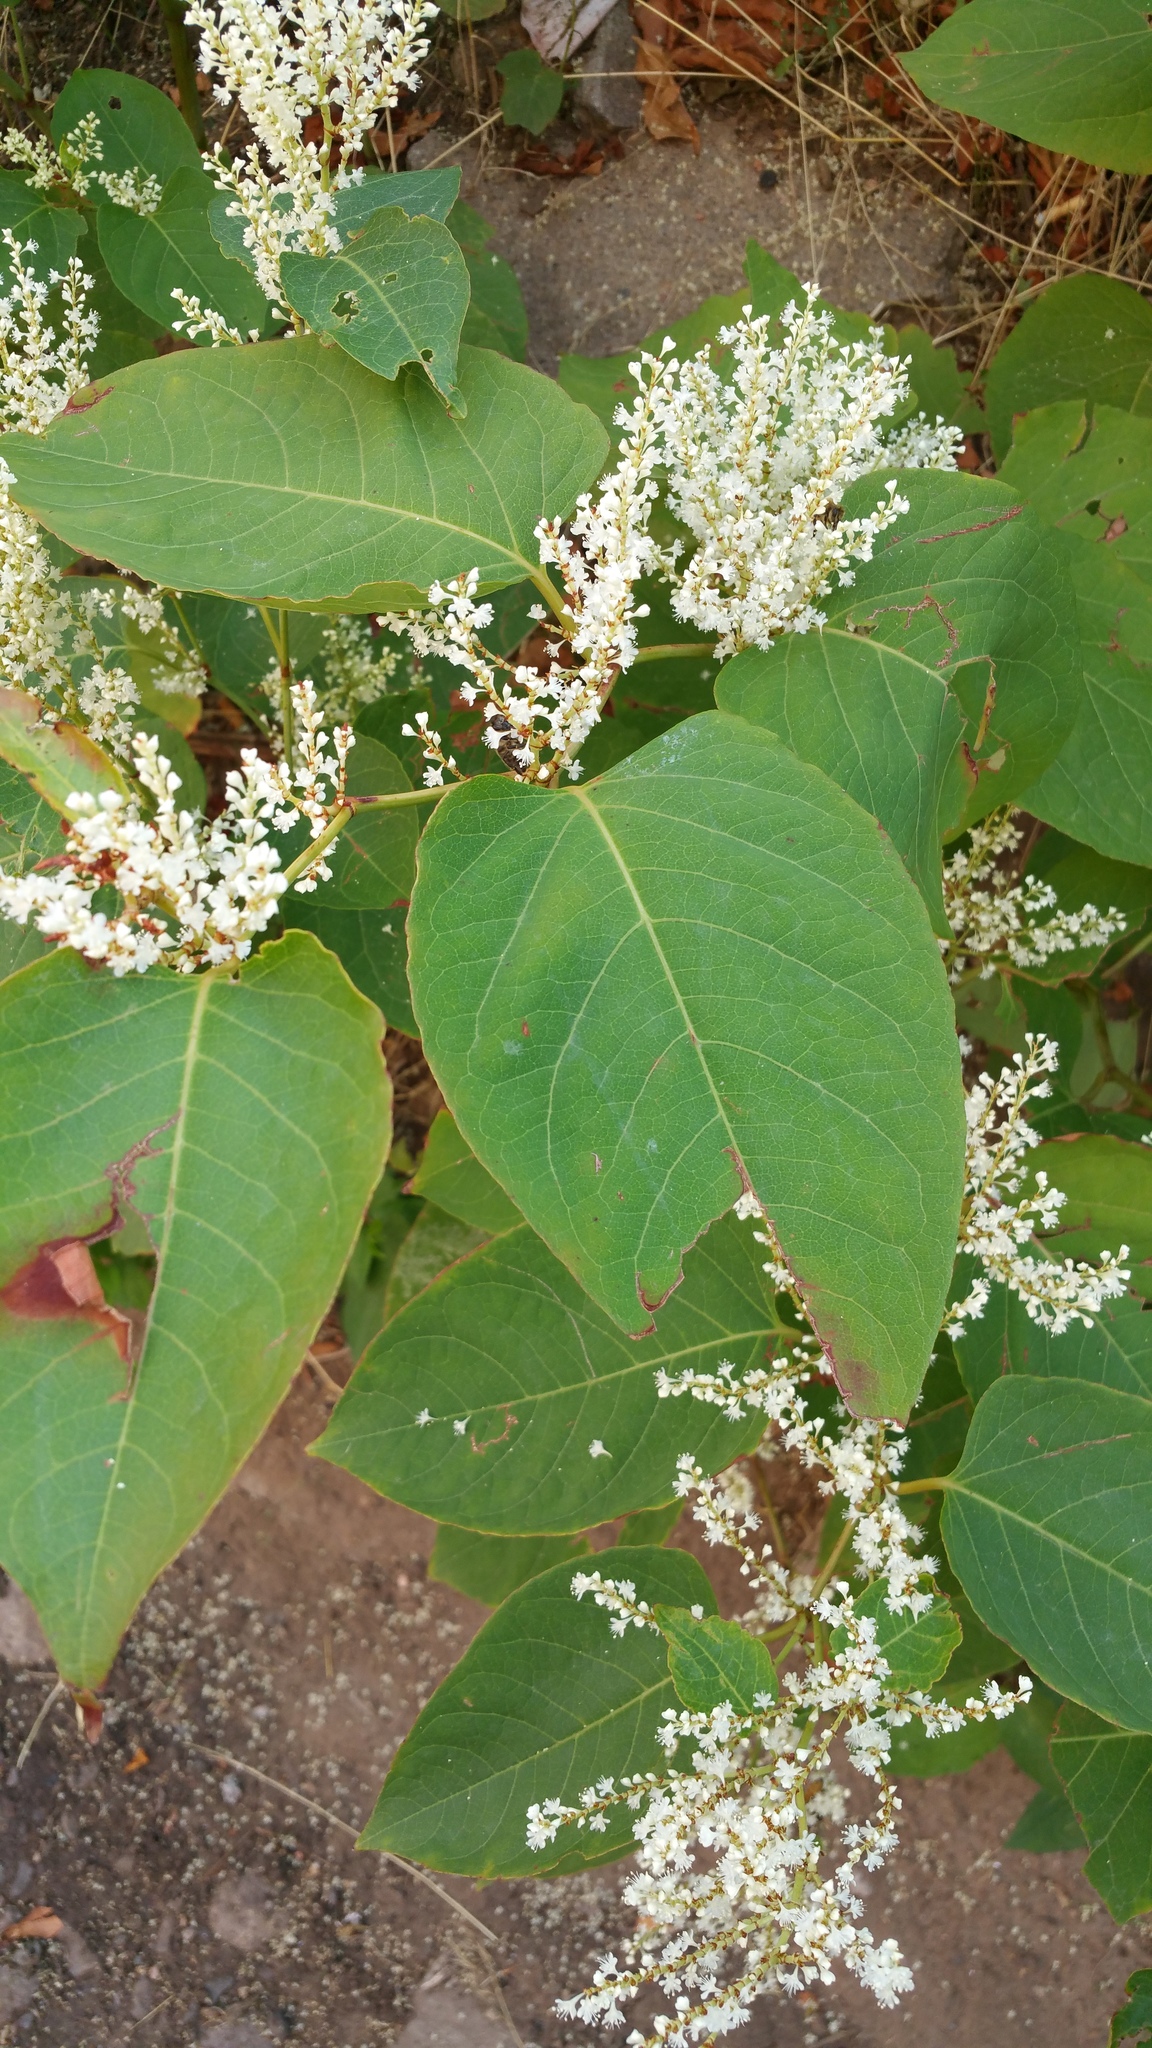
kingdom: Plantae
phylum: Tracheophyta
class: Magnoliopsida
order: Caryophyllales
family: Polygonaceae
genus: Reynoutria
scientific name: Reynoutria japonica
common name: Japanese knotweed
